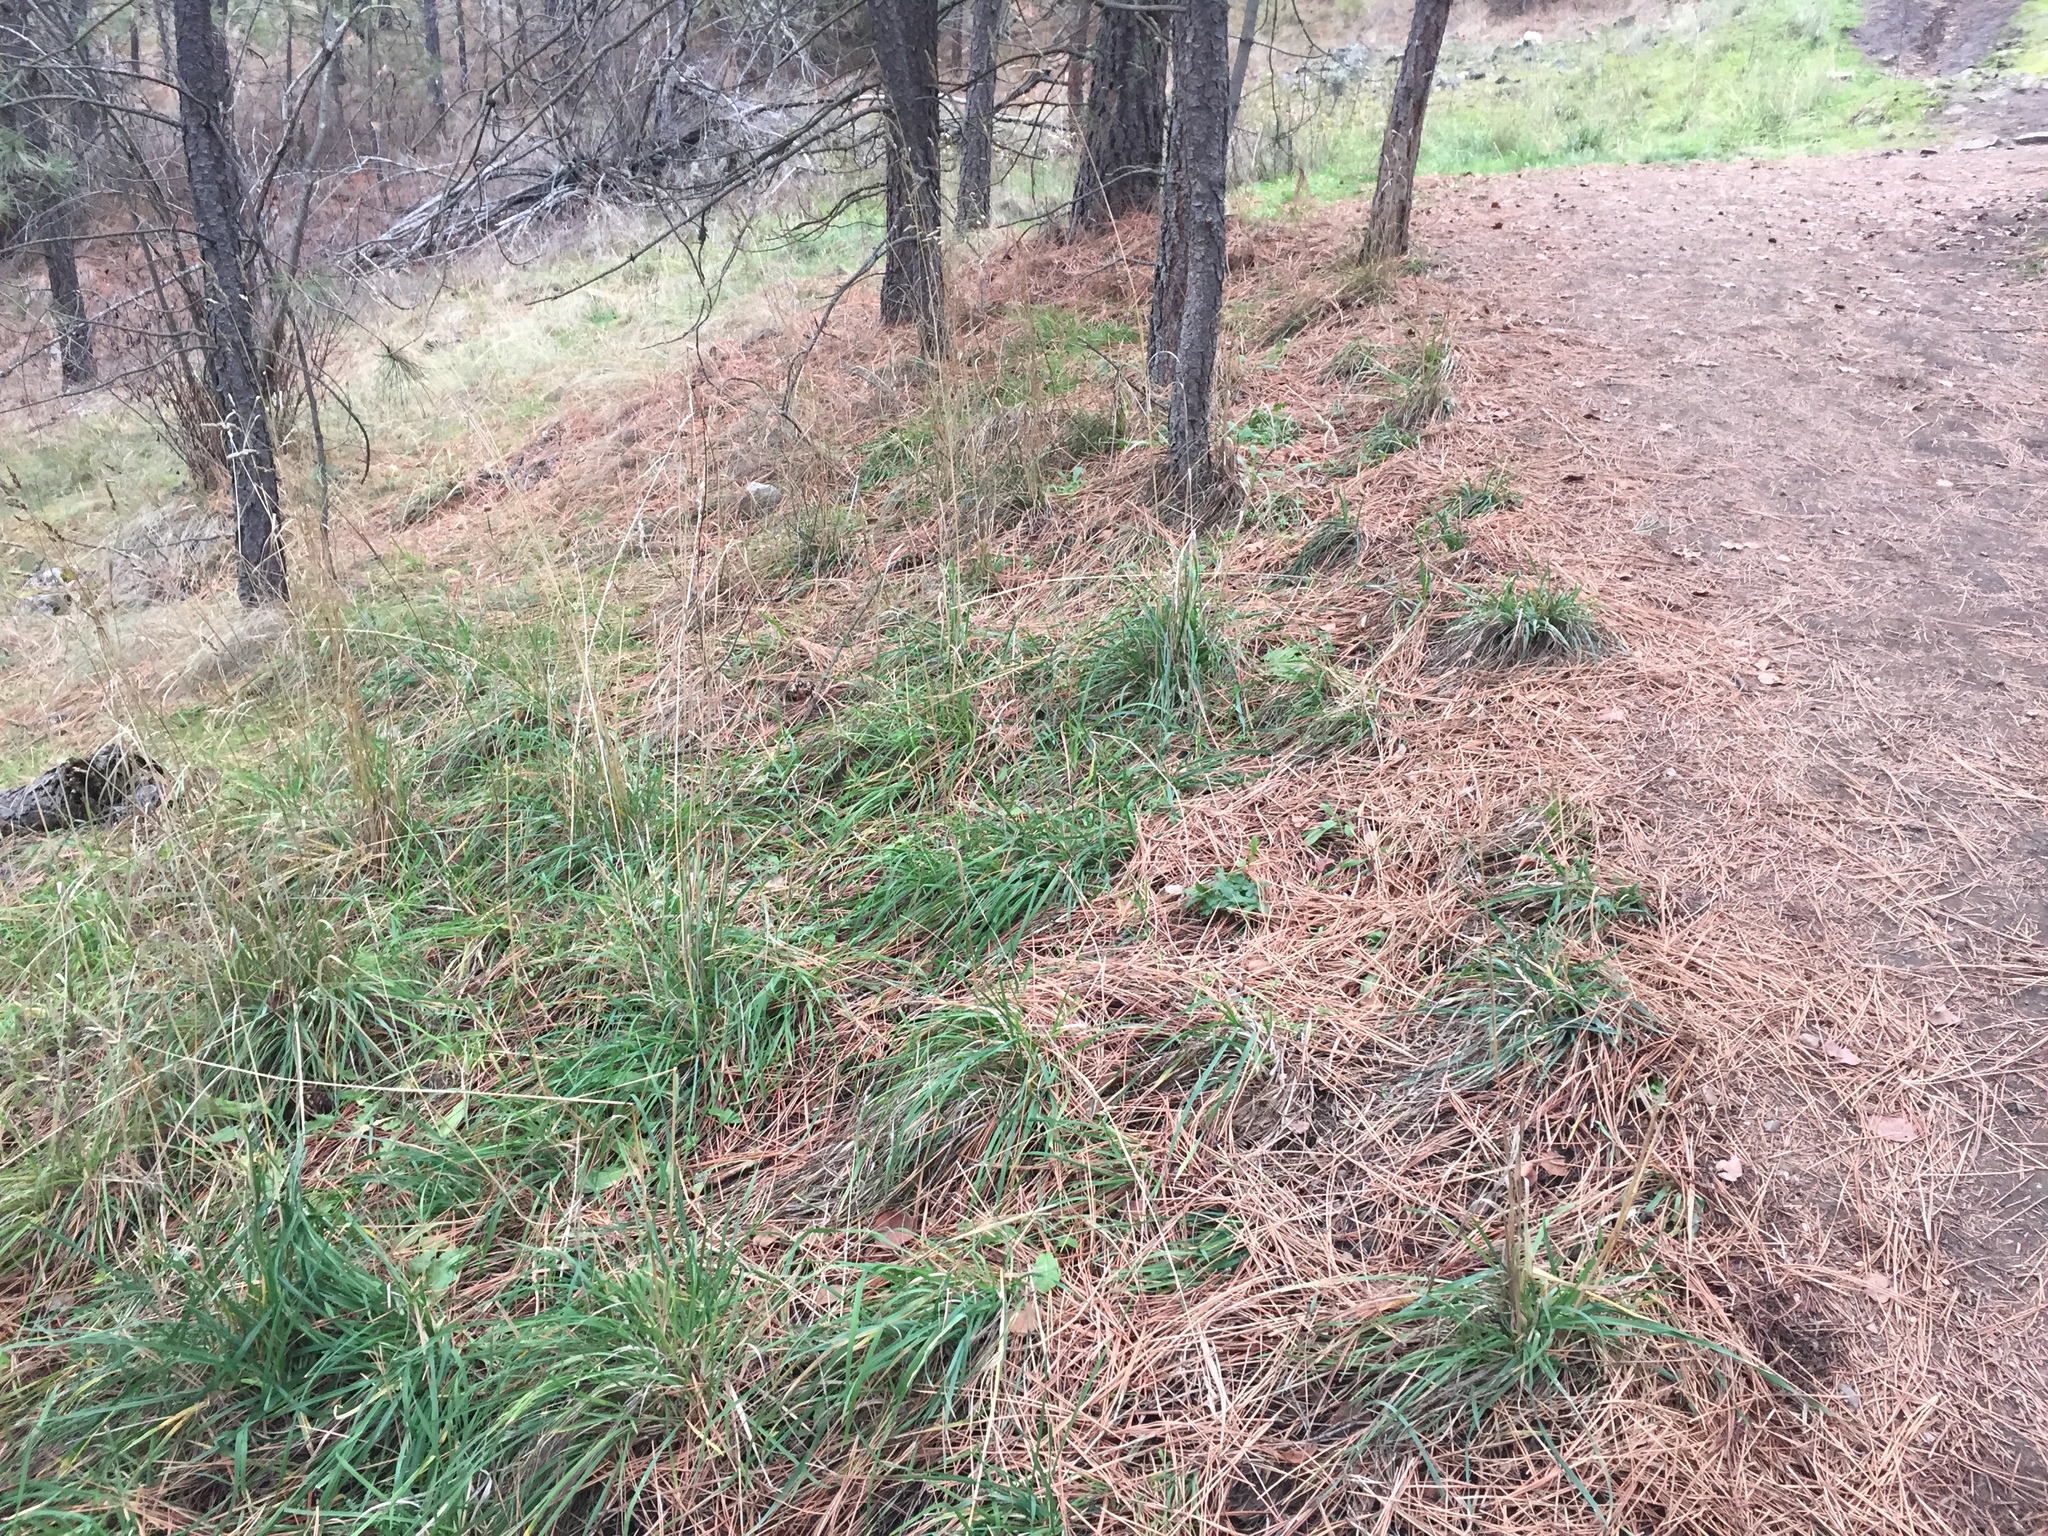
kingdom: Plantae
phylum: Tracheophyta
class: Liliopsida
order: Poales
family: Poaceae
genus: Dactylis
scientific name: Dactylis glomerata
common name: Orchardgrass
